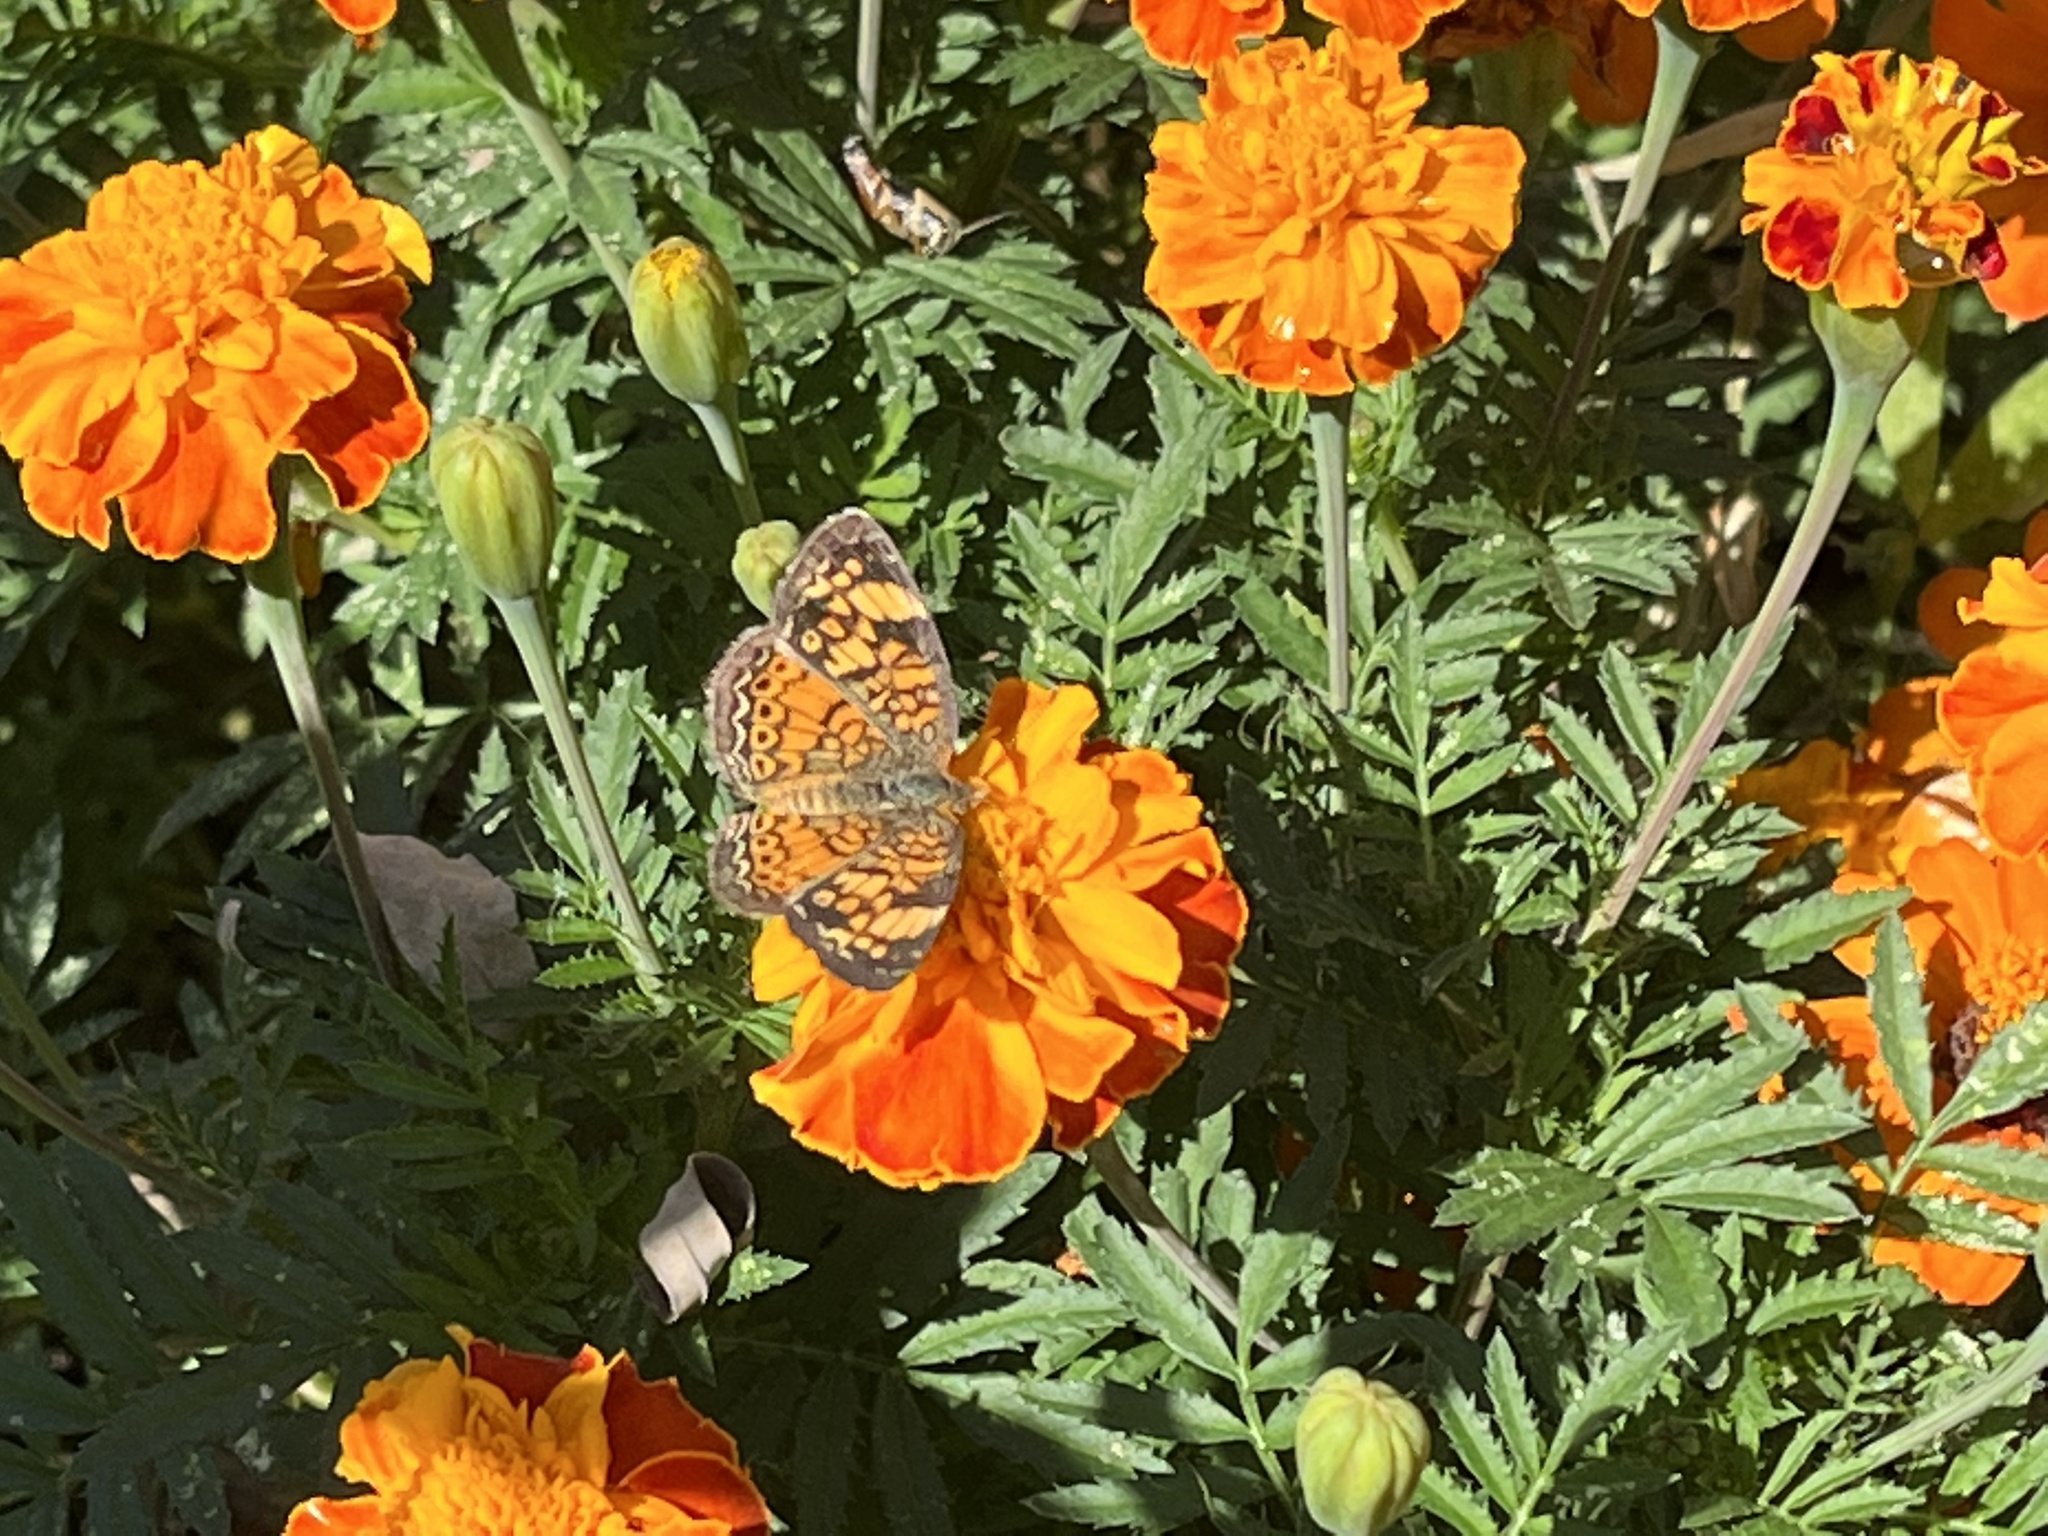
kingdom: Animalia
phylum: Arthropoda
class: Insecta
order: Lepidoptera
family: Nymphalidae
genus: Phyciodes
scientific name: Phyciodes tharos
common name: Pearl crescent
